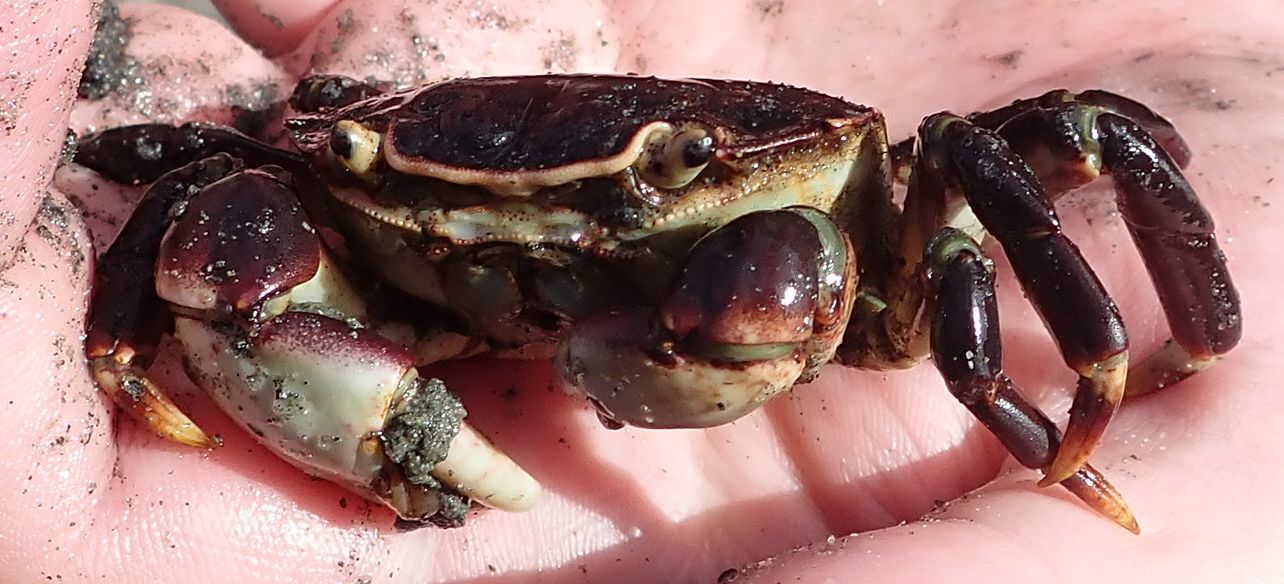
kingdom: Animalia
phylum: Arthropoda
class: Malacostraca
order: Decapoda
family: Varunidae
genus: Hemigrapsus
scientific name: Hemigrapsus sexdentatus
